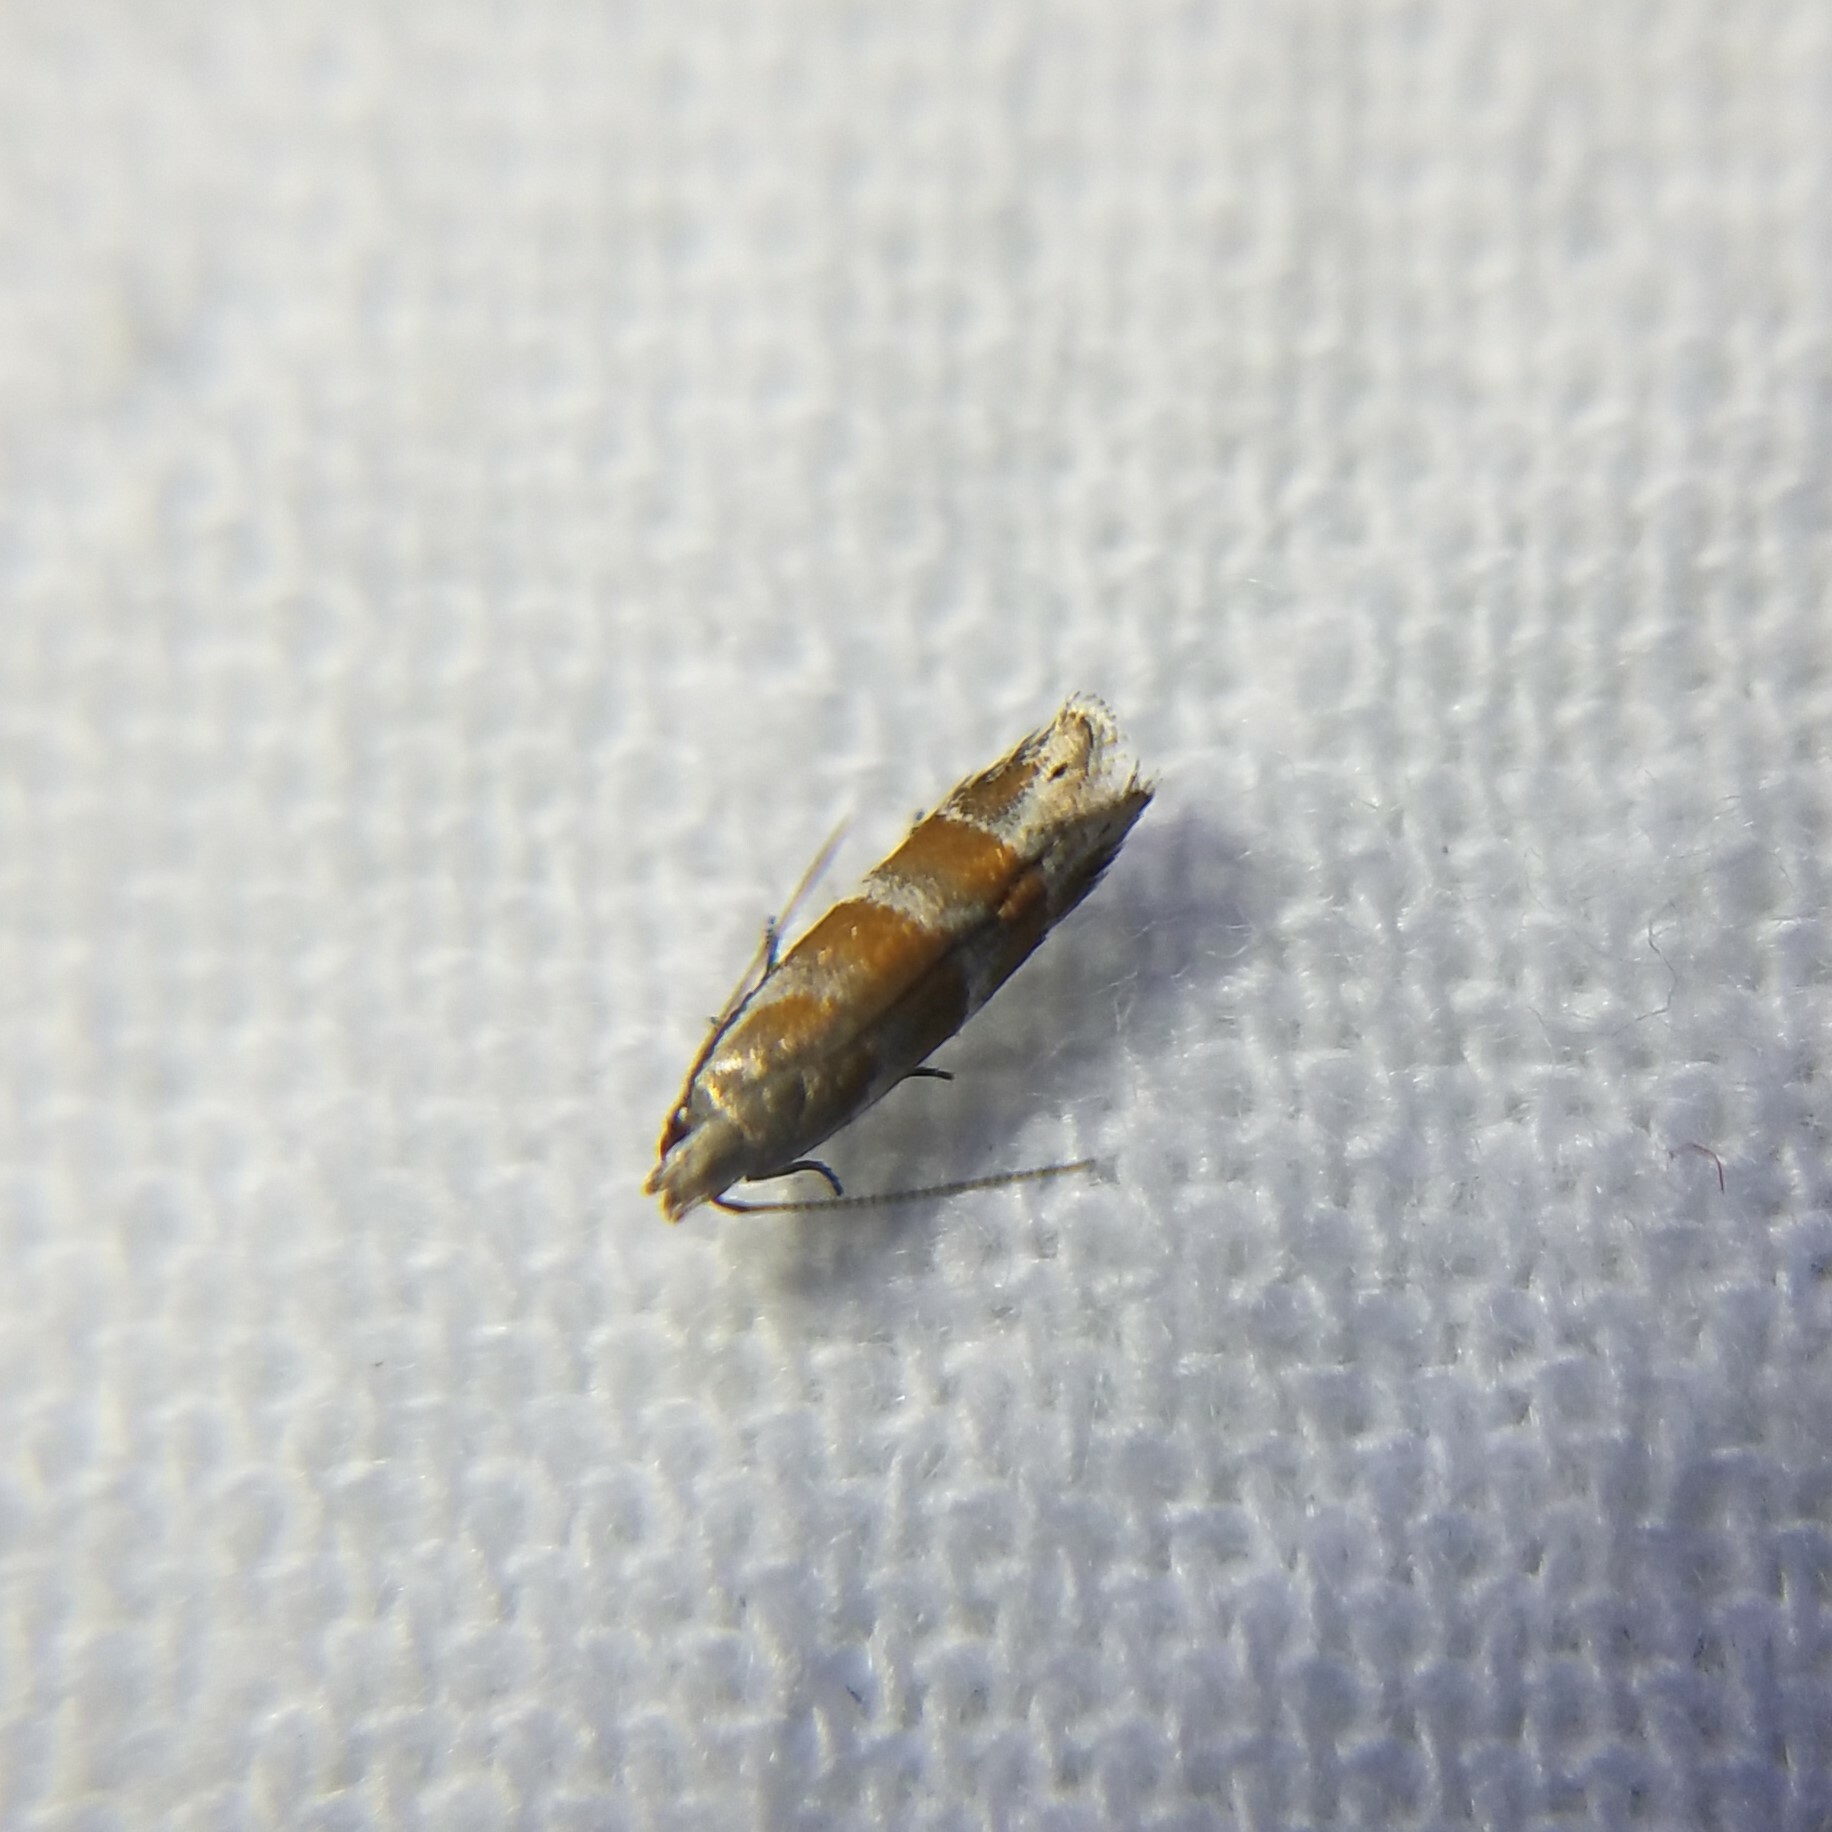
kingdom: Animalia
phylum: Arthropoda
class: Insecta
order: Lepidoptera
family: Gelechiidae
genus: Battaristis
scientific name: Battaristis vittella
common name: Orange stripe-backed moth
